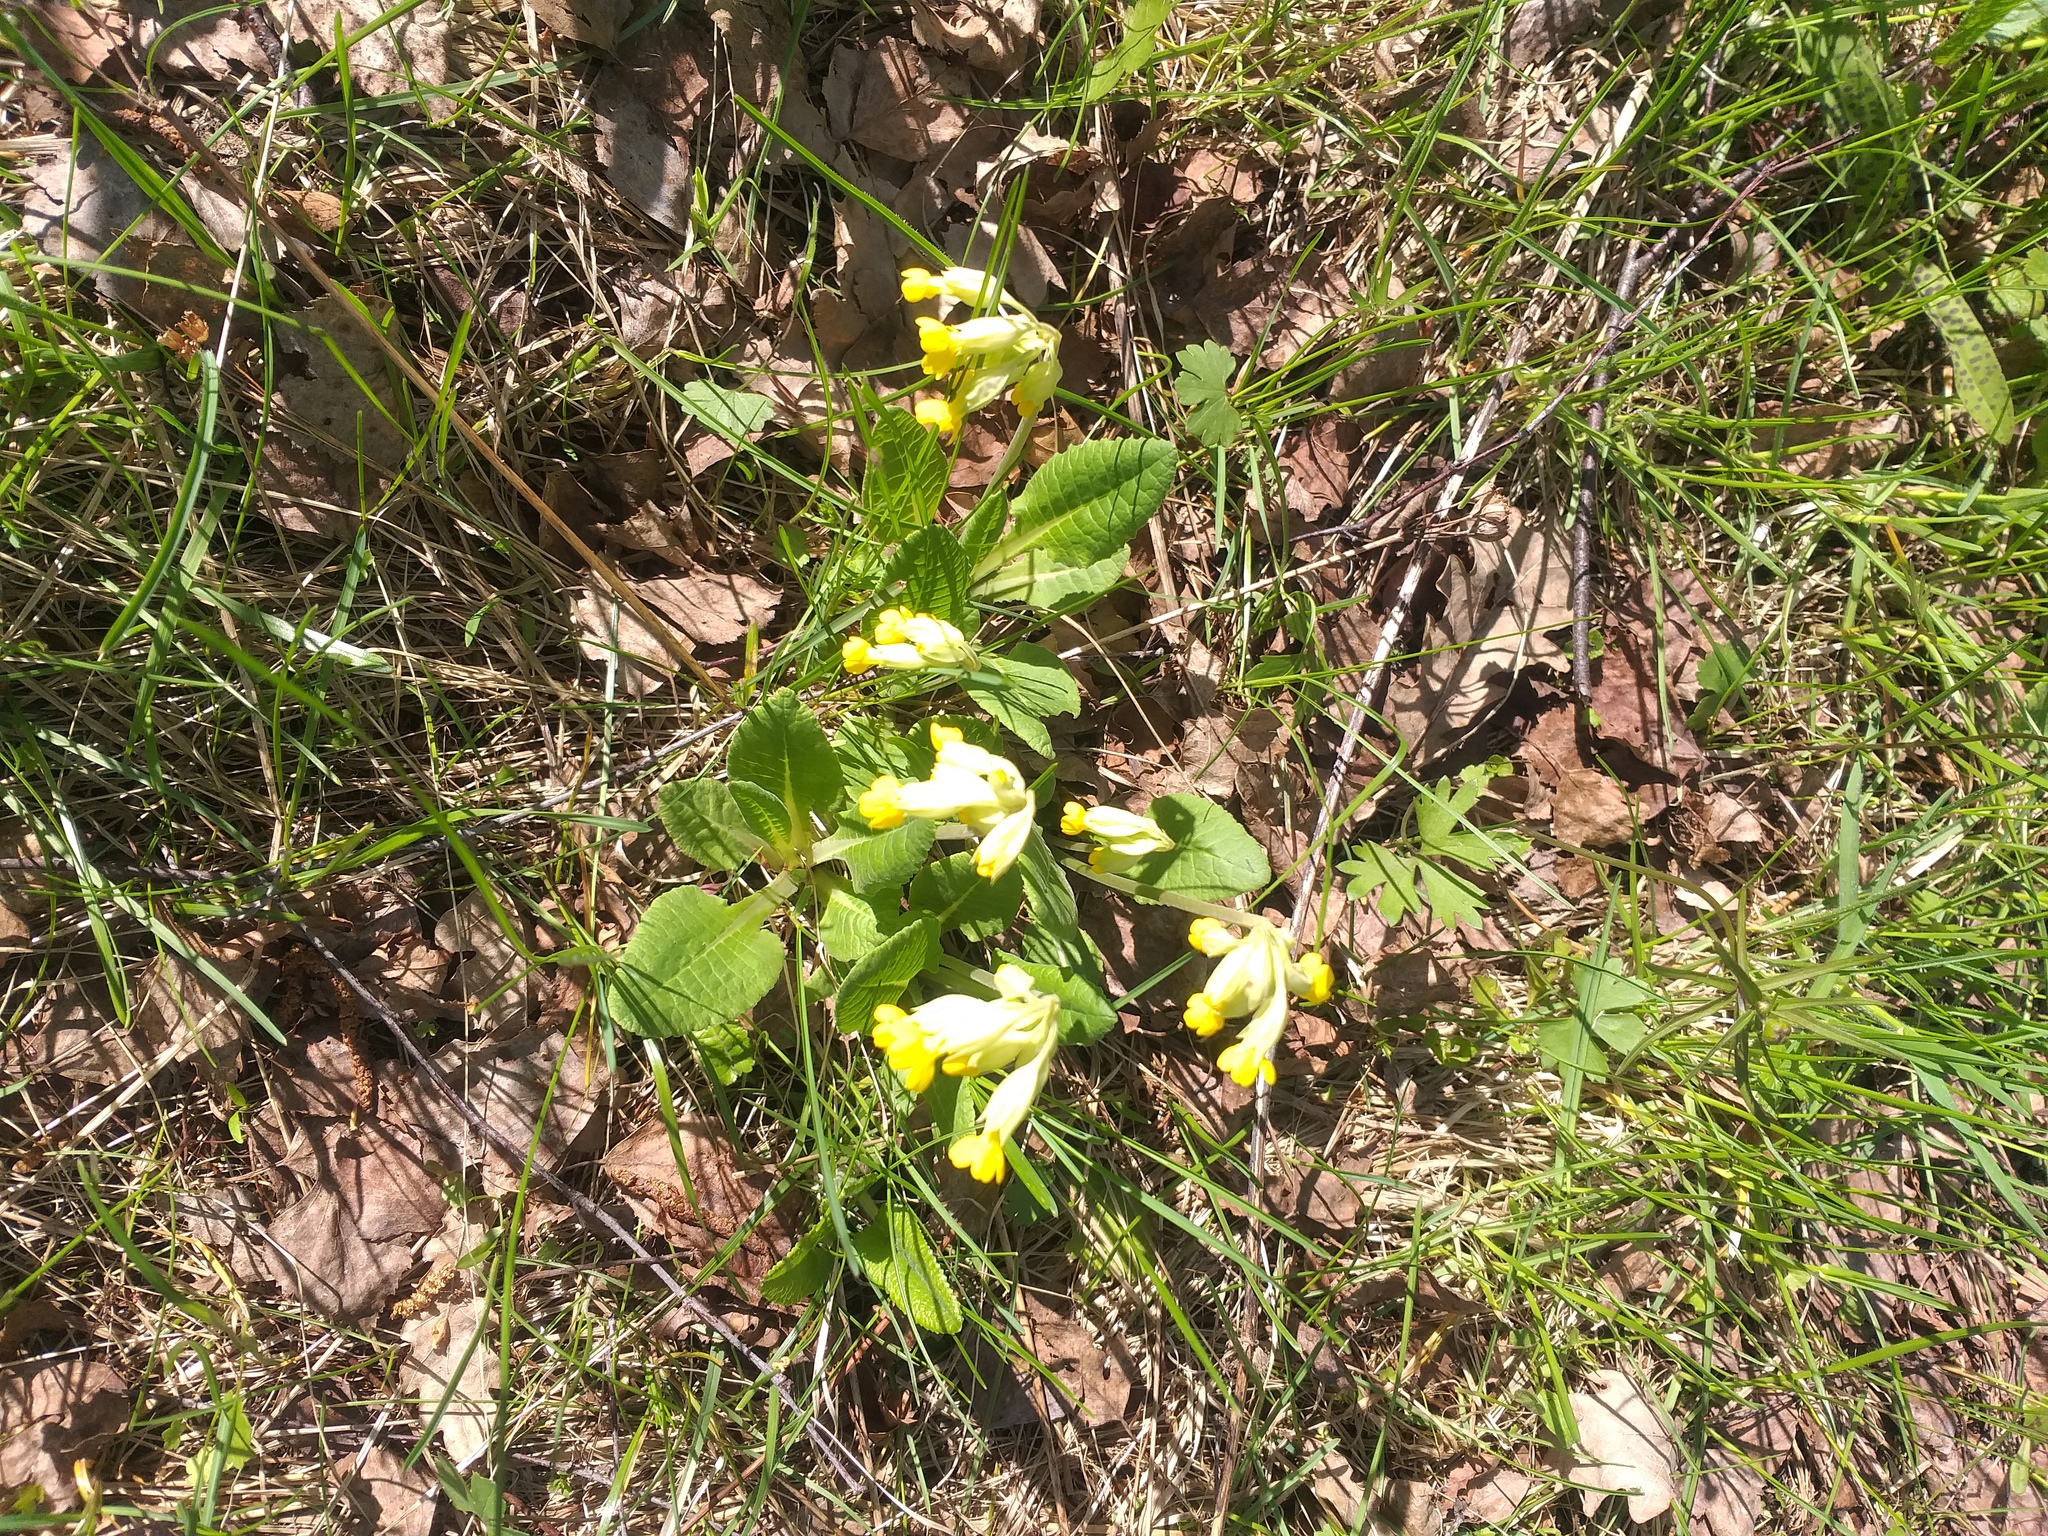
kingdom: Plantae
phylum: Tracheophyta
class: Magnoliopsida
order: Ericales
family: Primulaceae
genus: Primula
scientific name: Primula veris
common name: Cowslip
